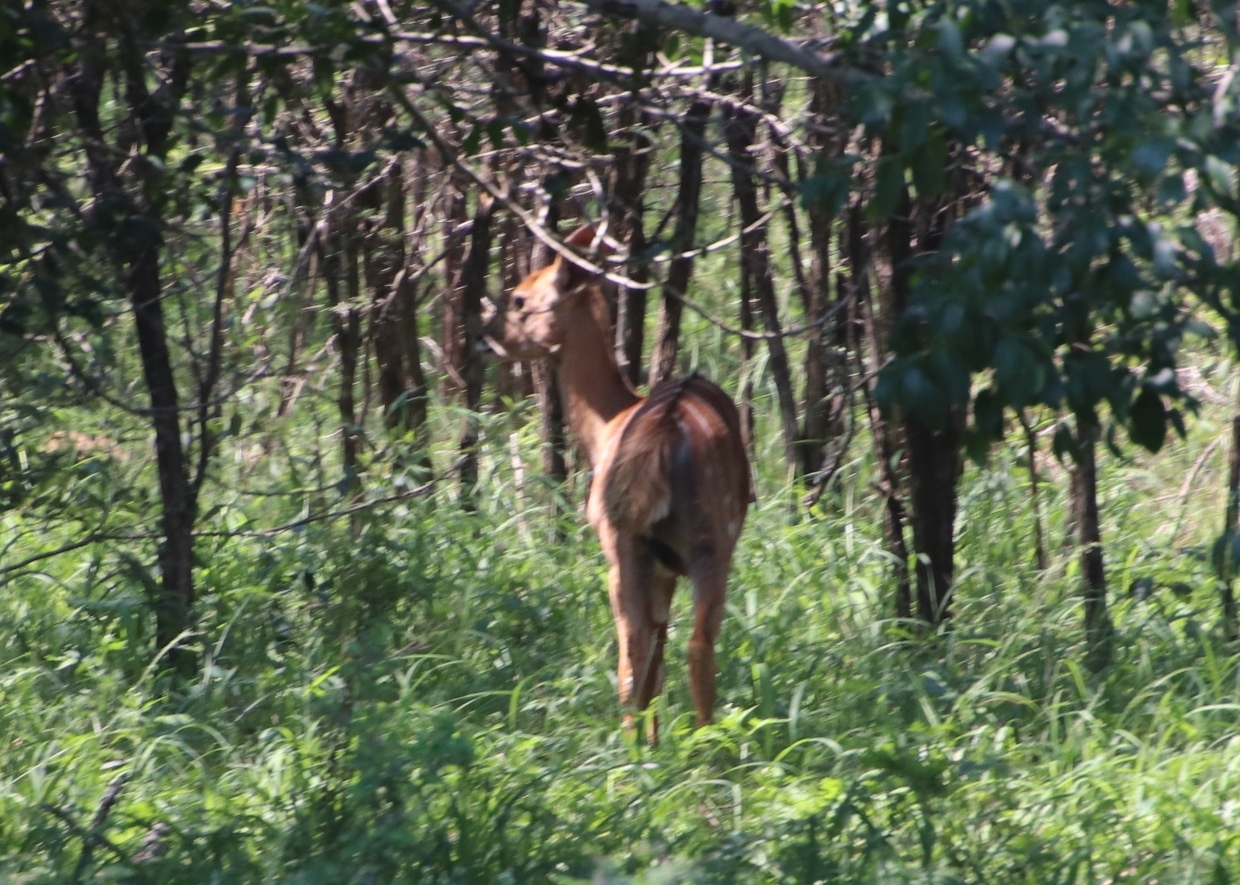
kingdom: Animalia
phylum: Chordata
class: Mammalia
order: Artiodactyla
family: Bovidae
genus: Tragelaphus
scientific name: Tragelaphus angasii
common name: Nyala
